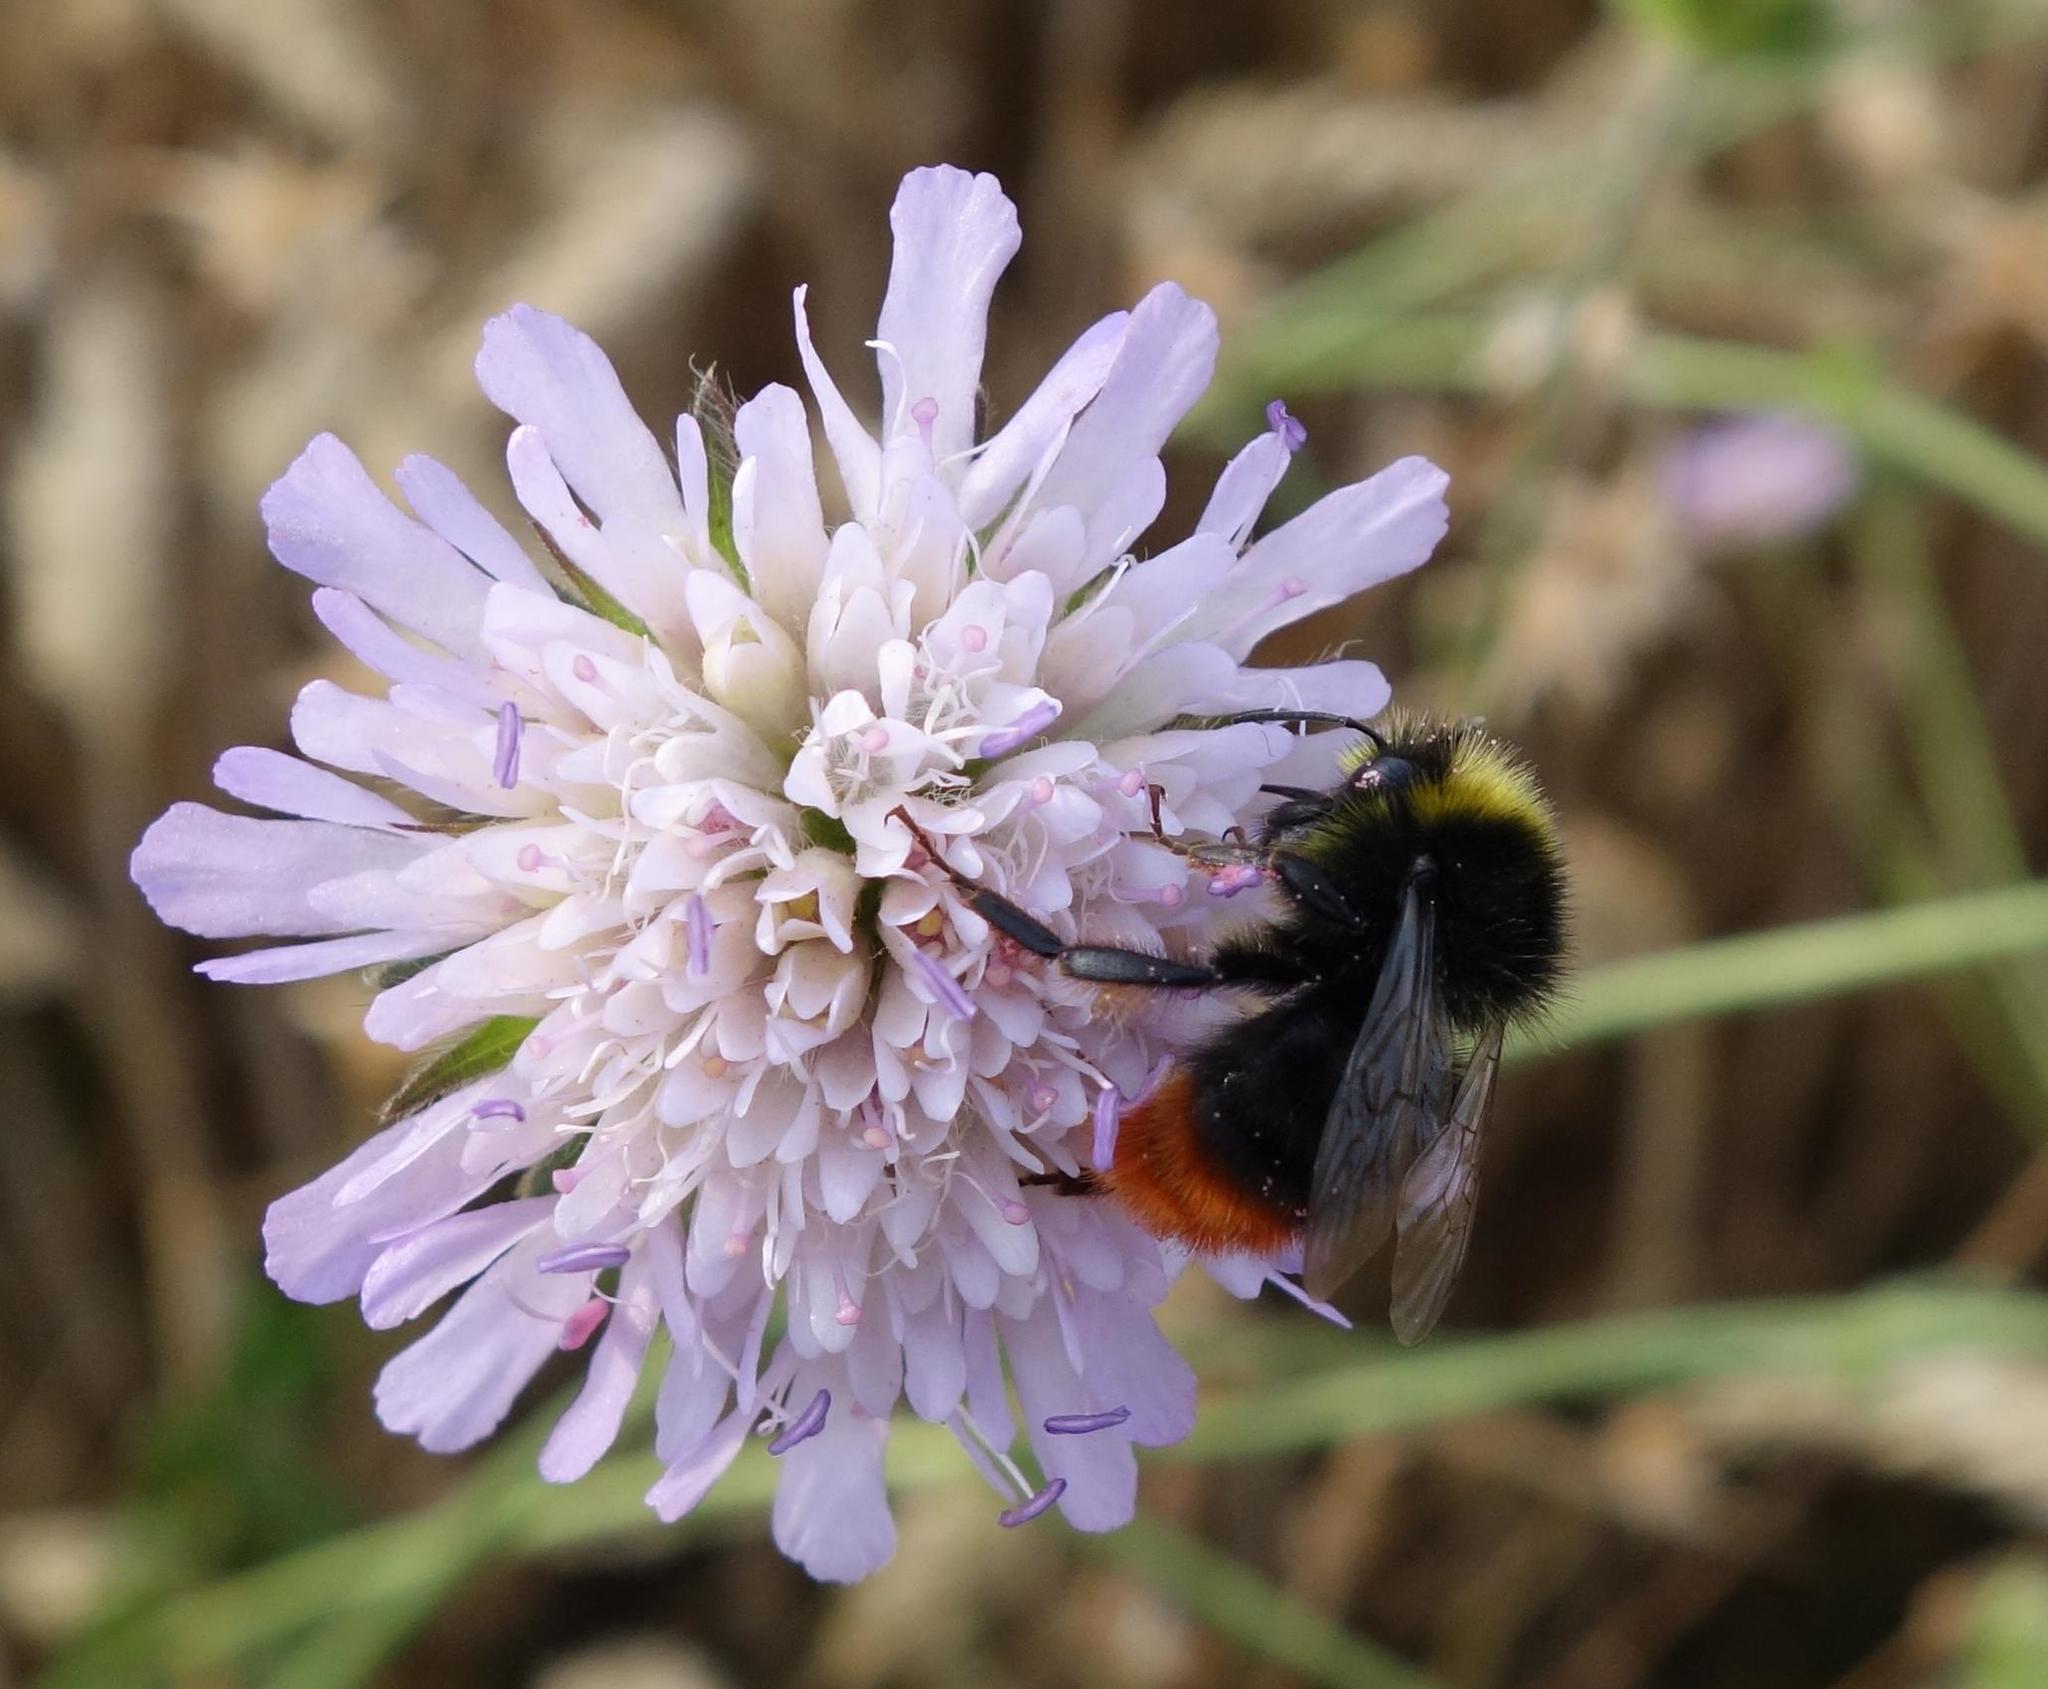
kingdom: Animalia
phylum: Arthropoda
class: Insecta
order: Hymenoptera
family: Apidae
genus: Bombus
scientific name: Bombus lapidarius
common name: Large red-tailed humble-bee
